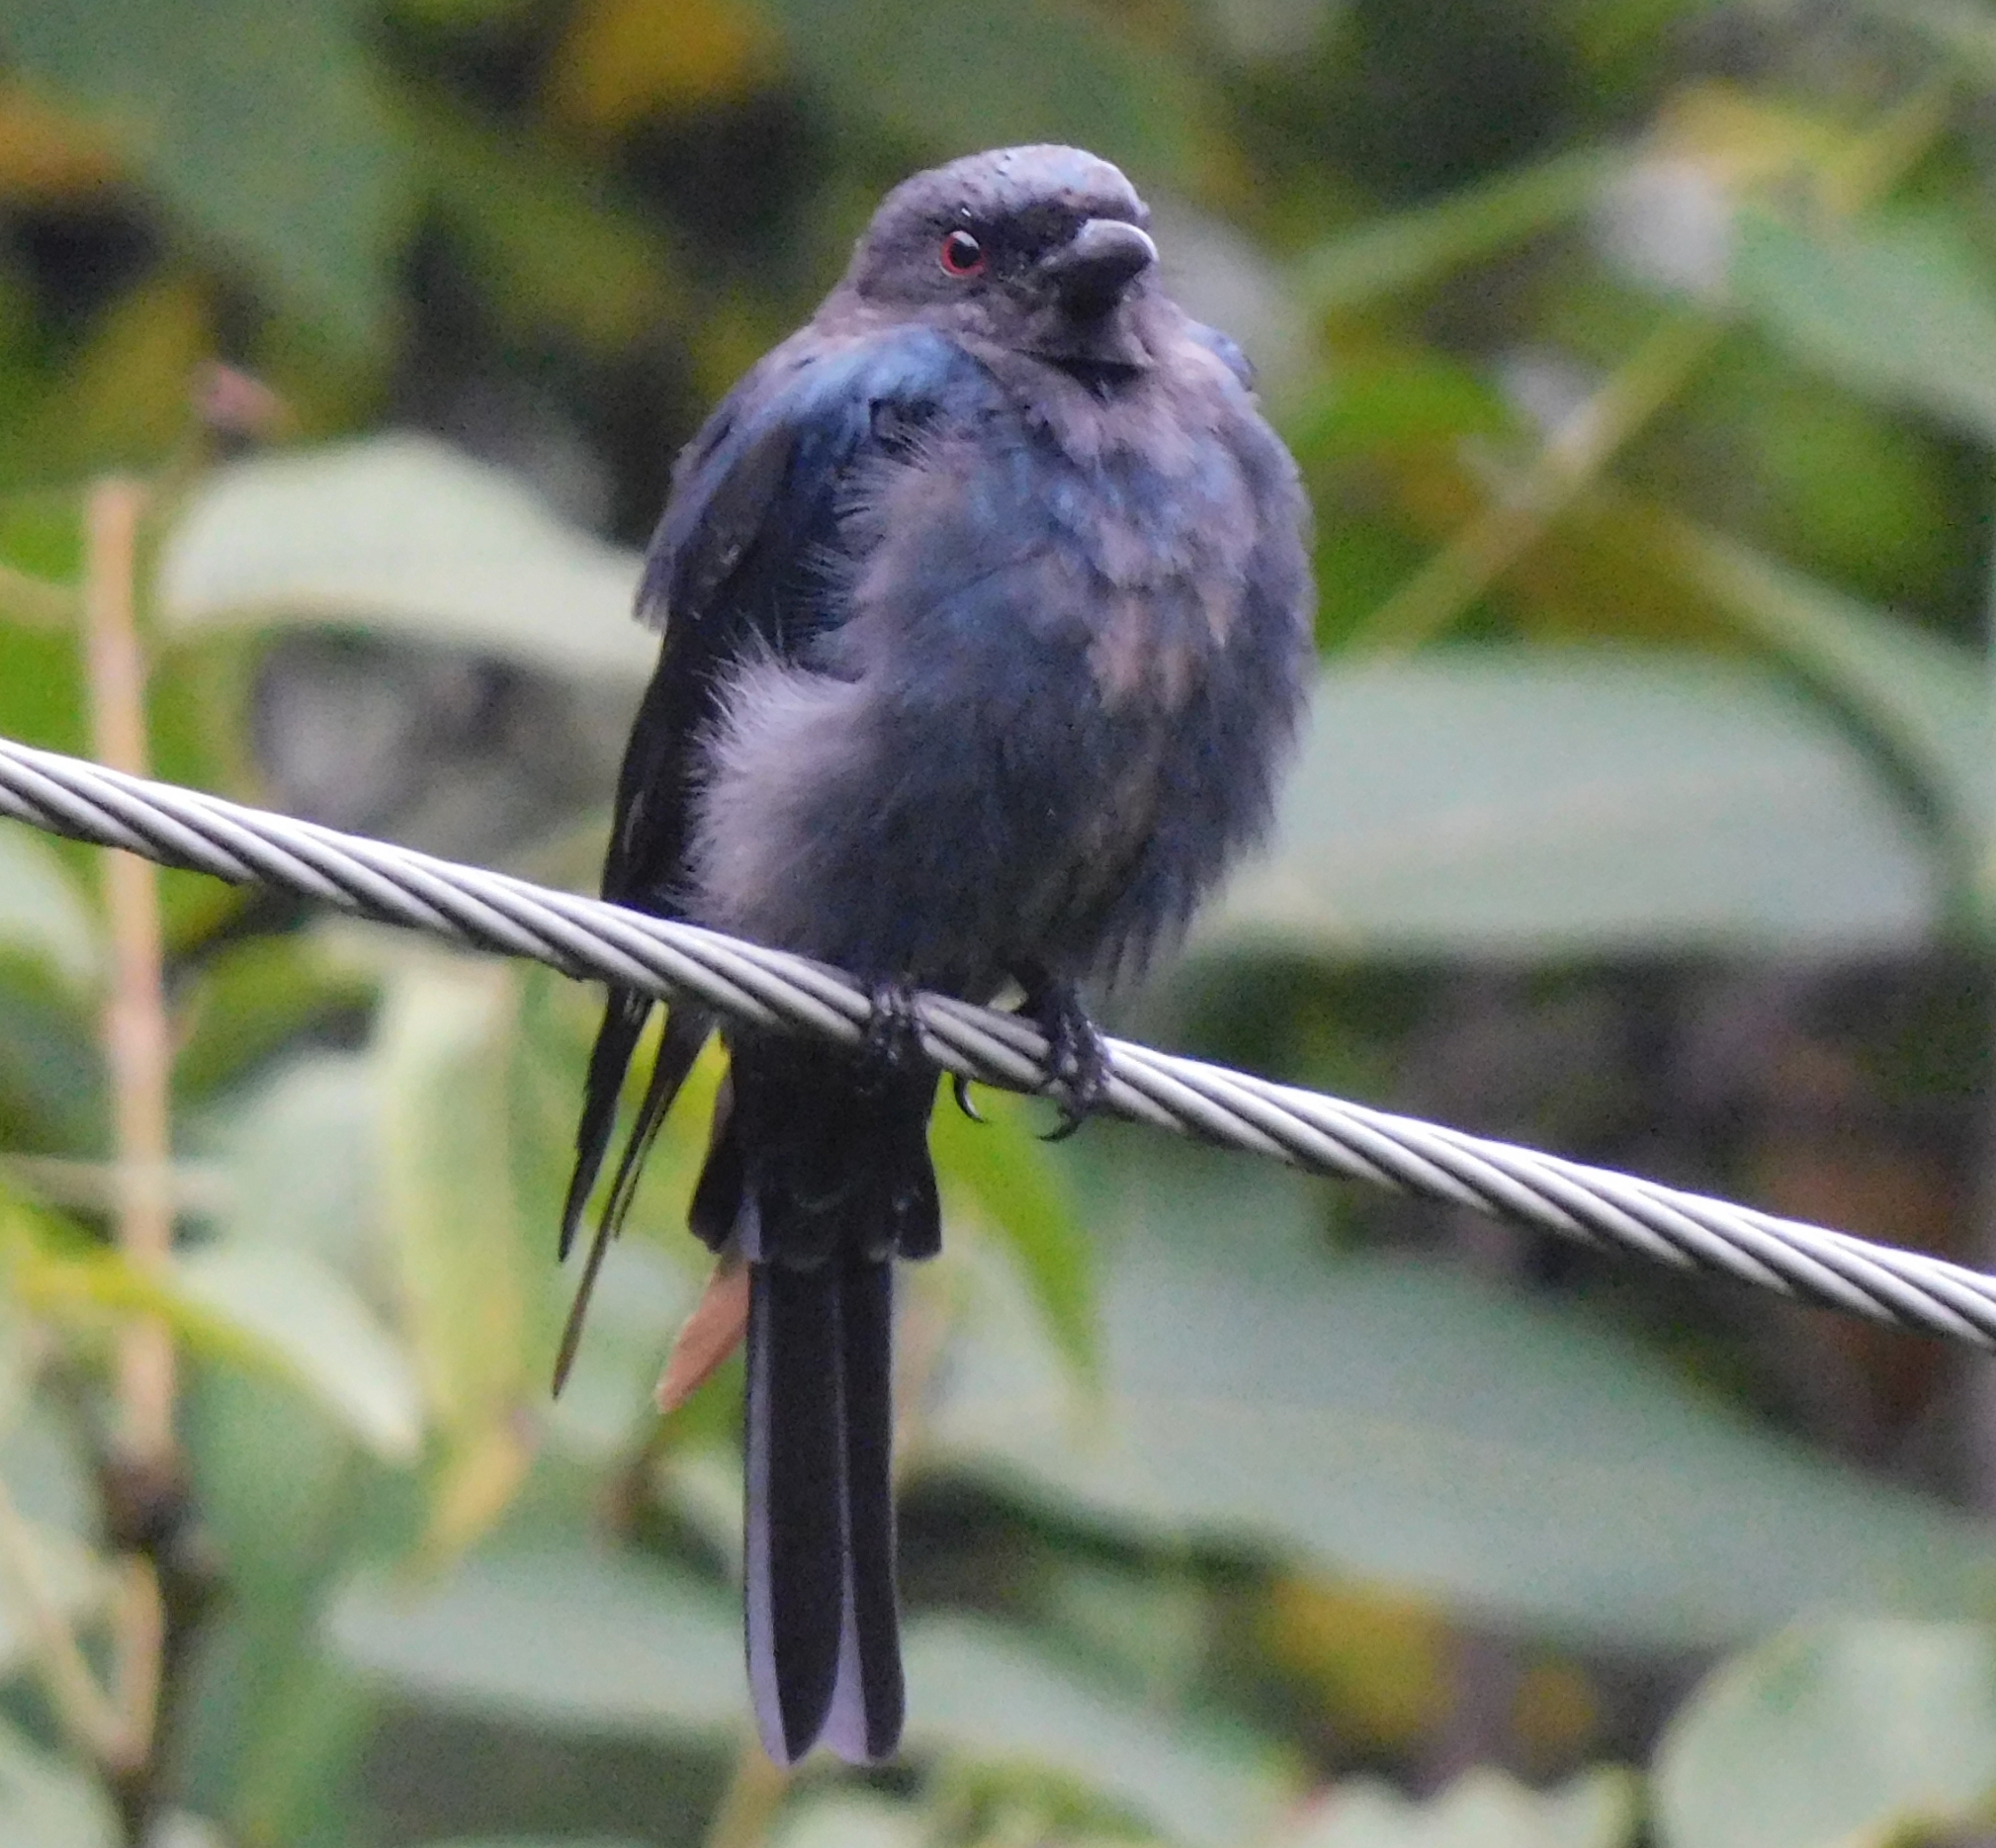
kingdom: Animalia
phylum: Chordata
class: Aves
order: Passeriformes
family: Dicruridae
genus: Dicrurus
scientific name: Dicrurus leucophaeus
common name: Ashy drongo
